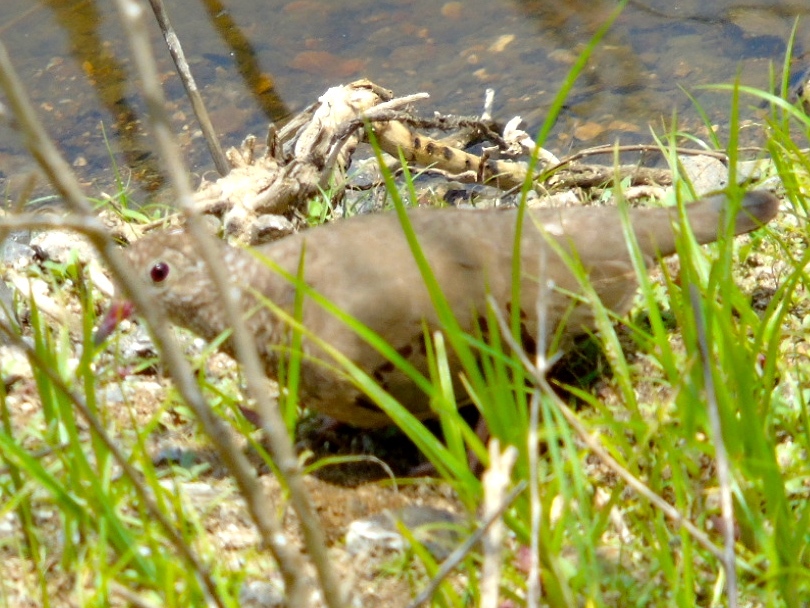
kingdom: Animalia
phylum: Chordata
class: Aves
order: Columbiformes
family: Columbidae
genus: Columbina
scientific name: Columbina passerina
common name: Common ground-dove
